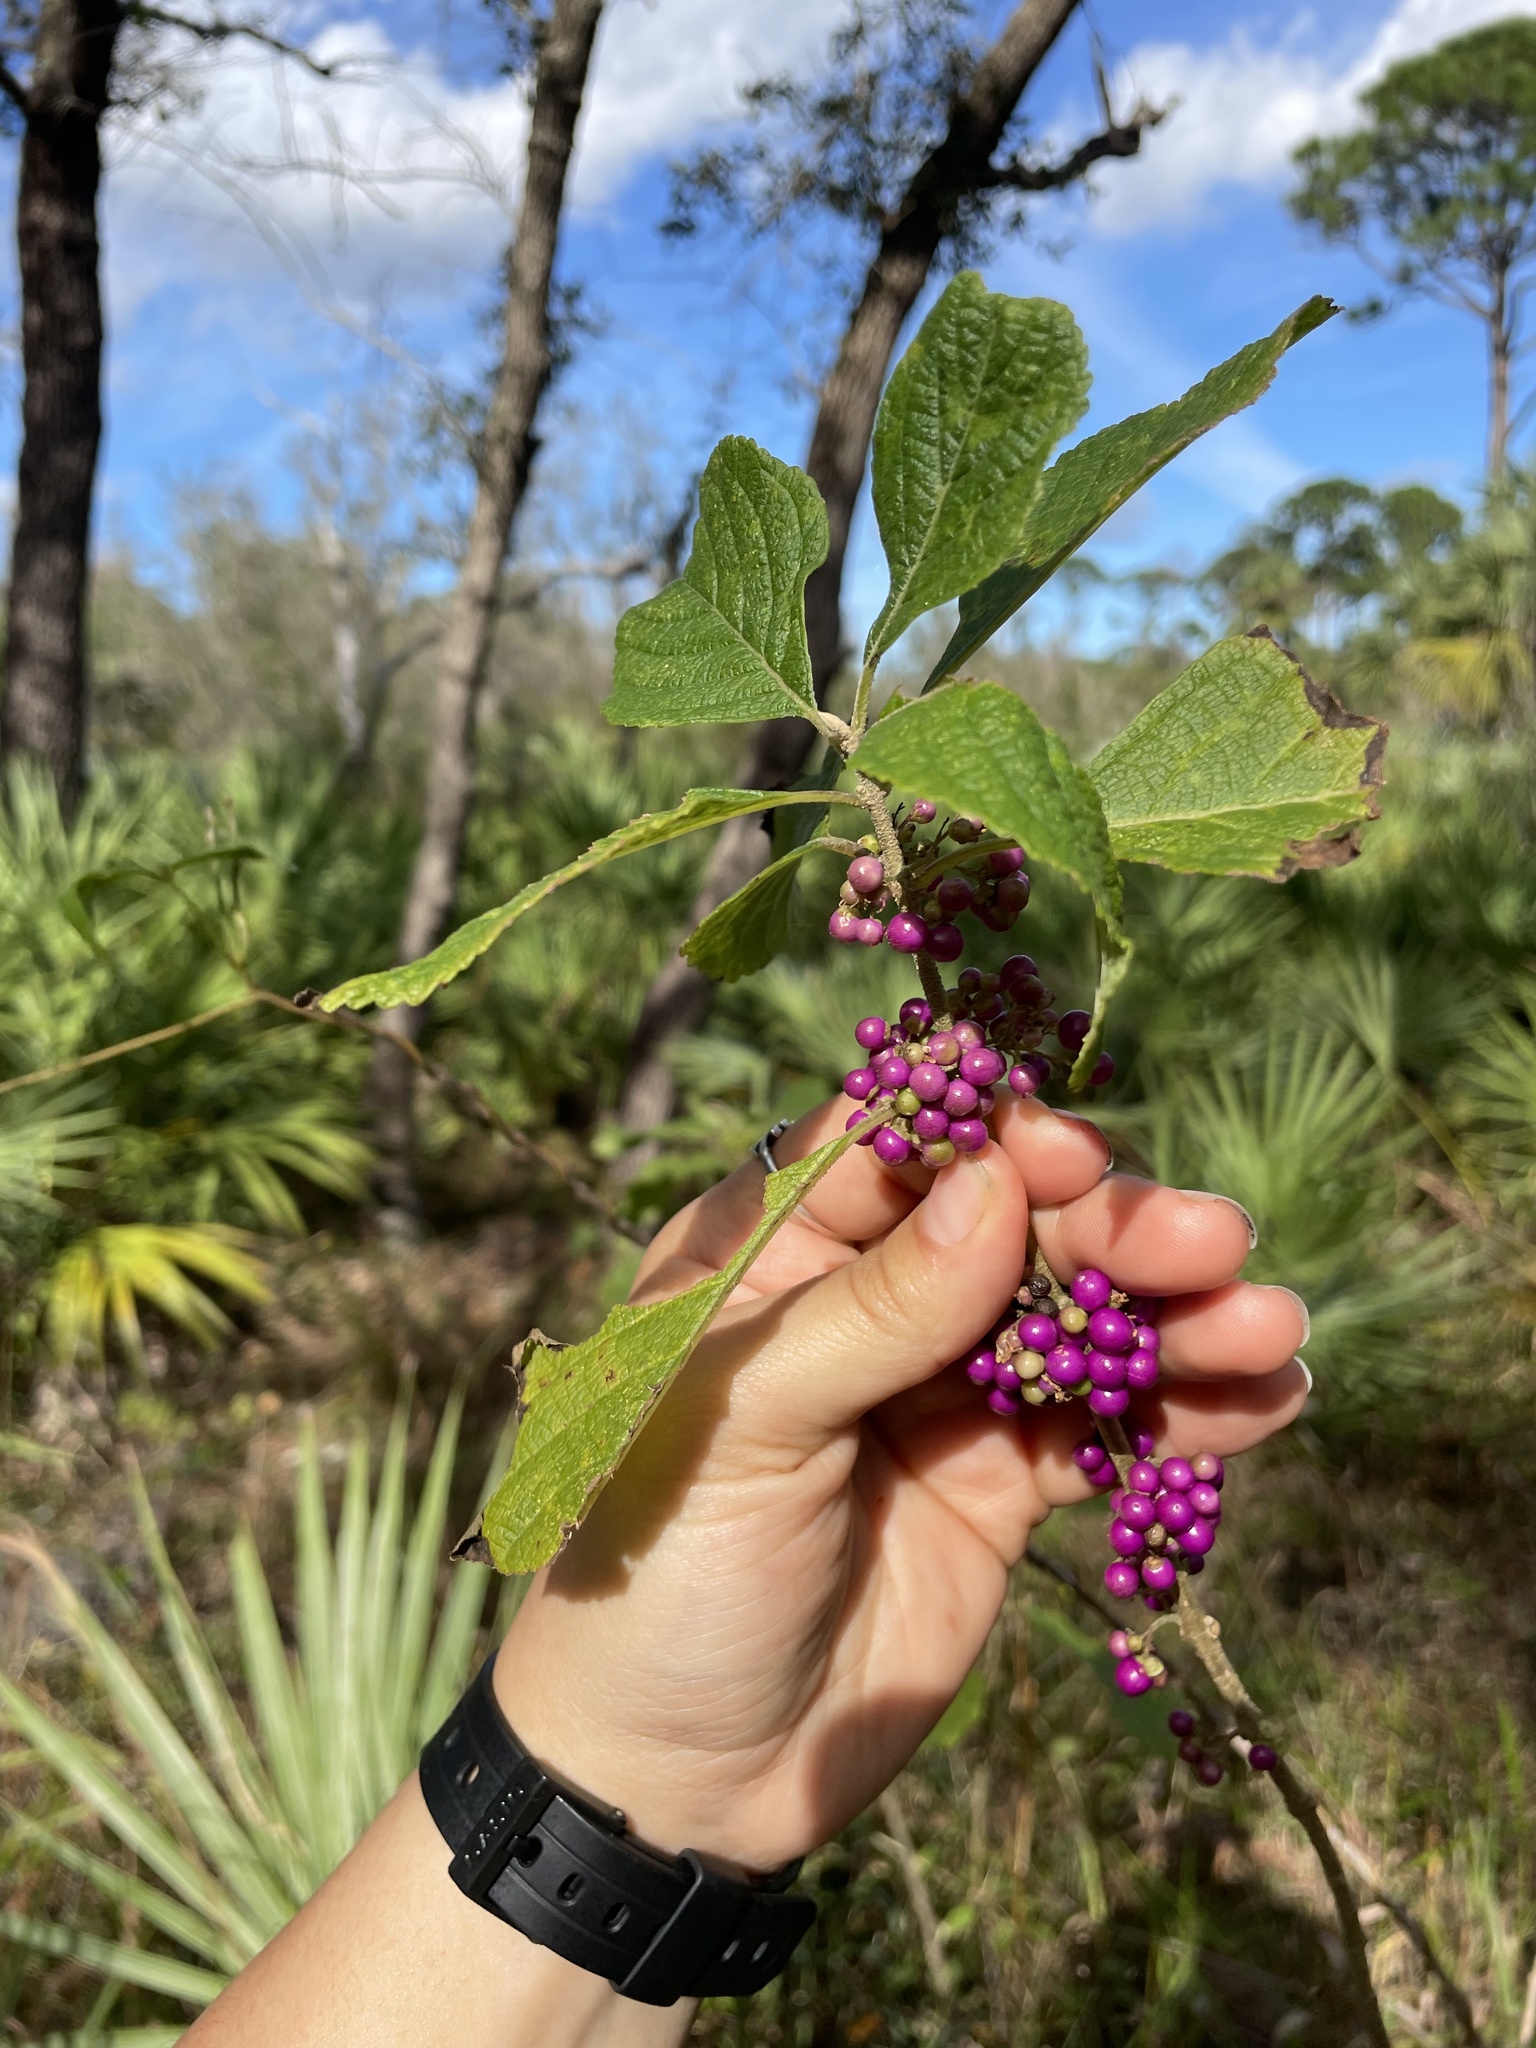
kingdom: Plantae
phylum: Tracheophyta
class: Magnoliopsida
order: Lamiales
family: Lamiaceae
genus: Callicarpa
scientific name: Callicarpa americana
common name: American beautyberry
